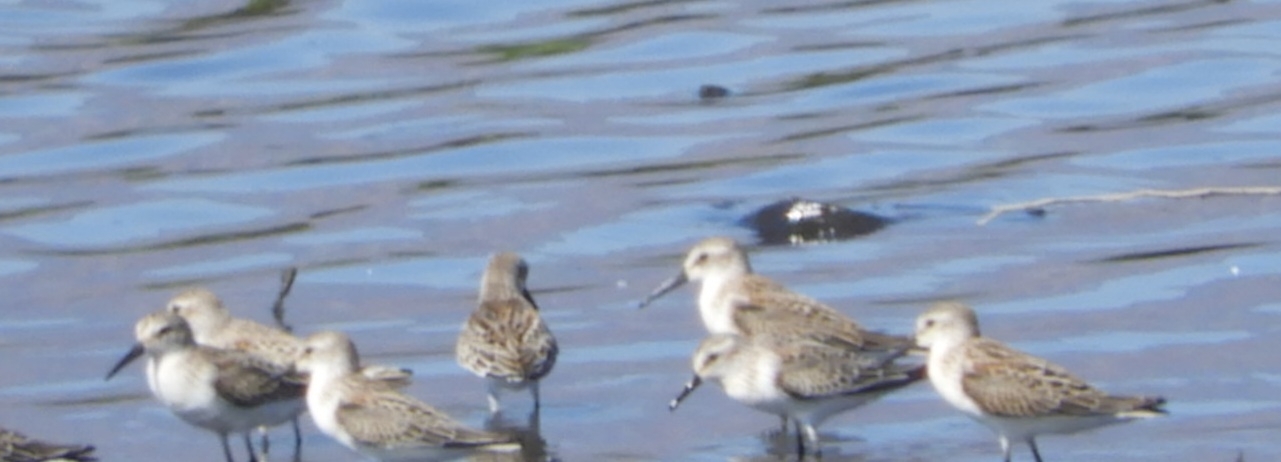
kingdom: Animalia
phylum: Chordata
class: Aves
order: Charadriiformes
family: Scolopacidae
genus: Calidris
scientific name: Calidris mauri
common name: Western sandpiper
